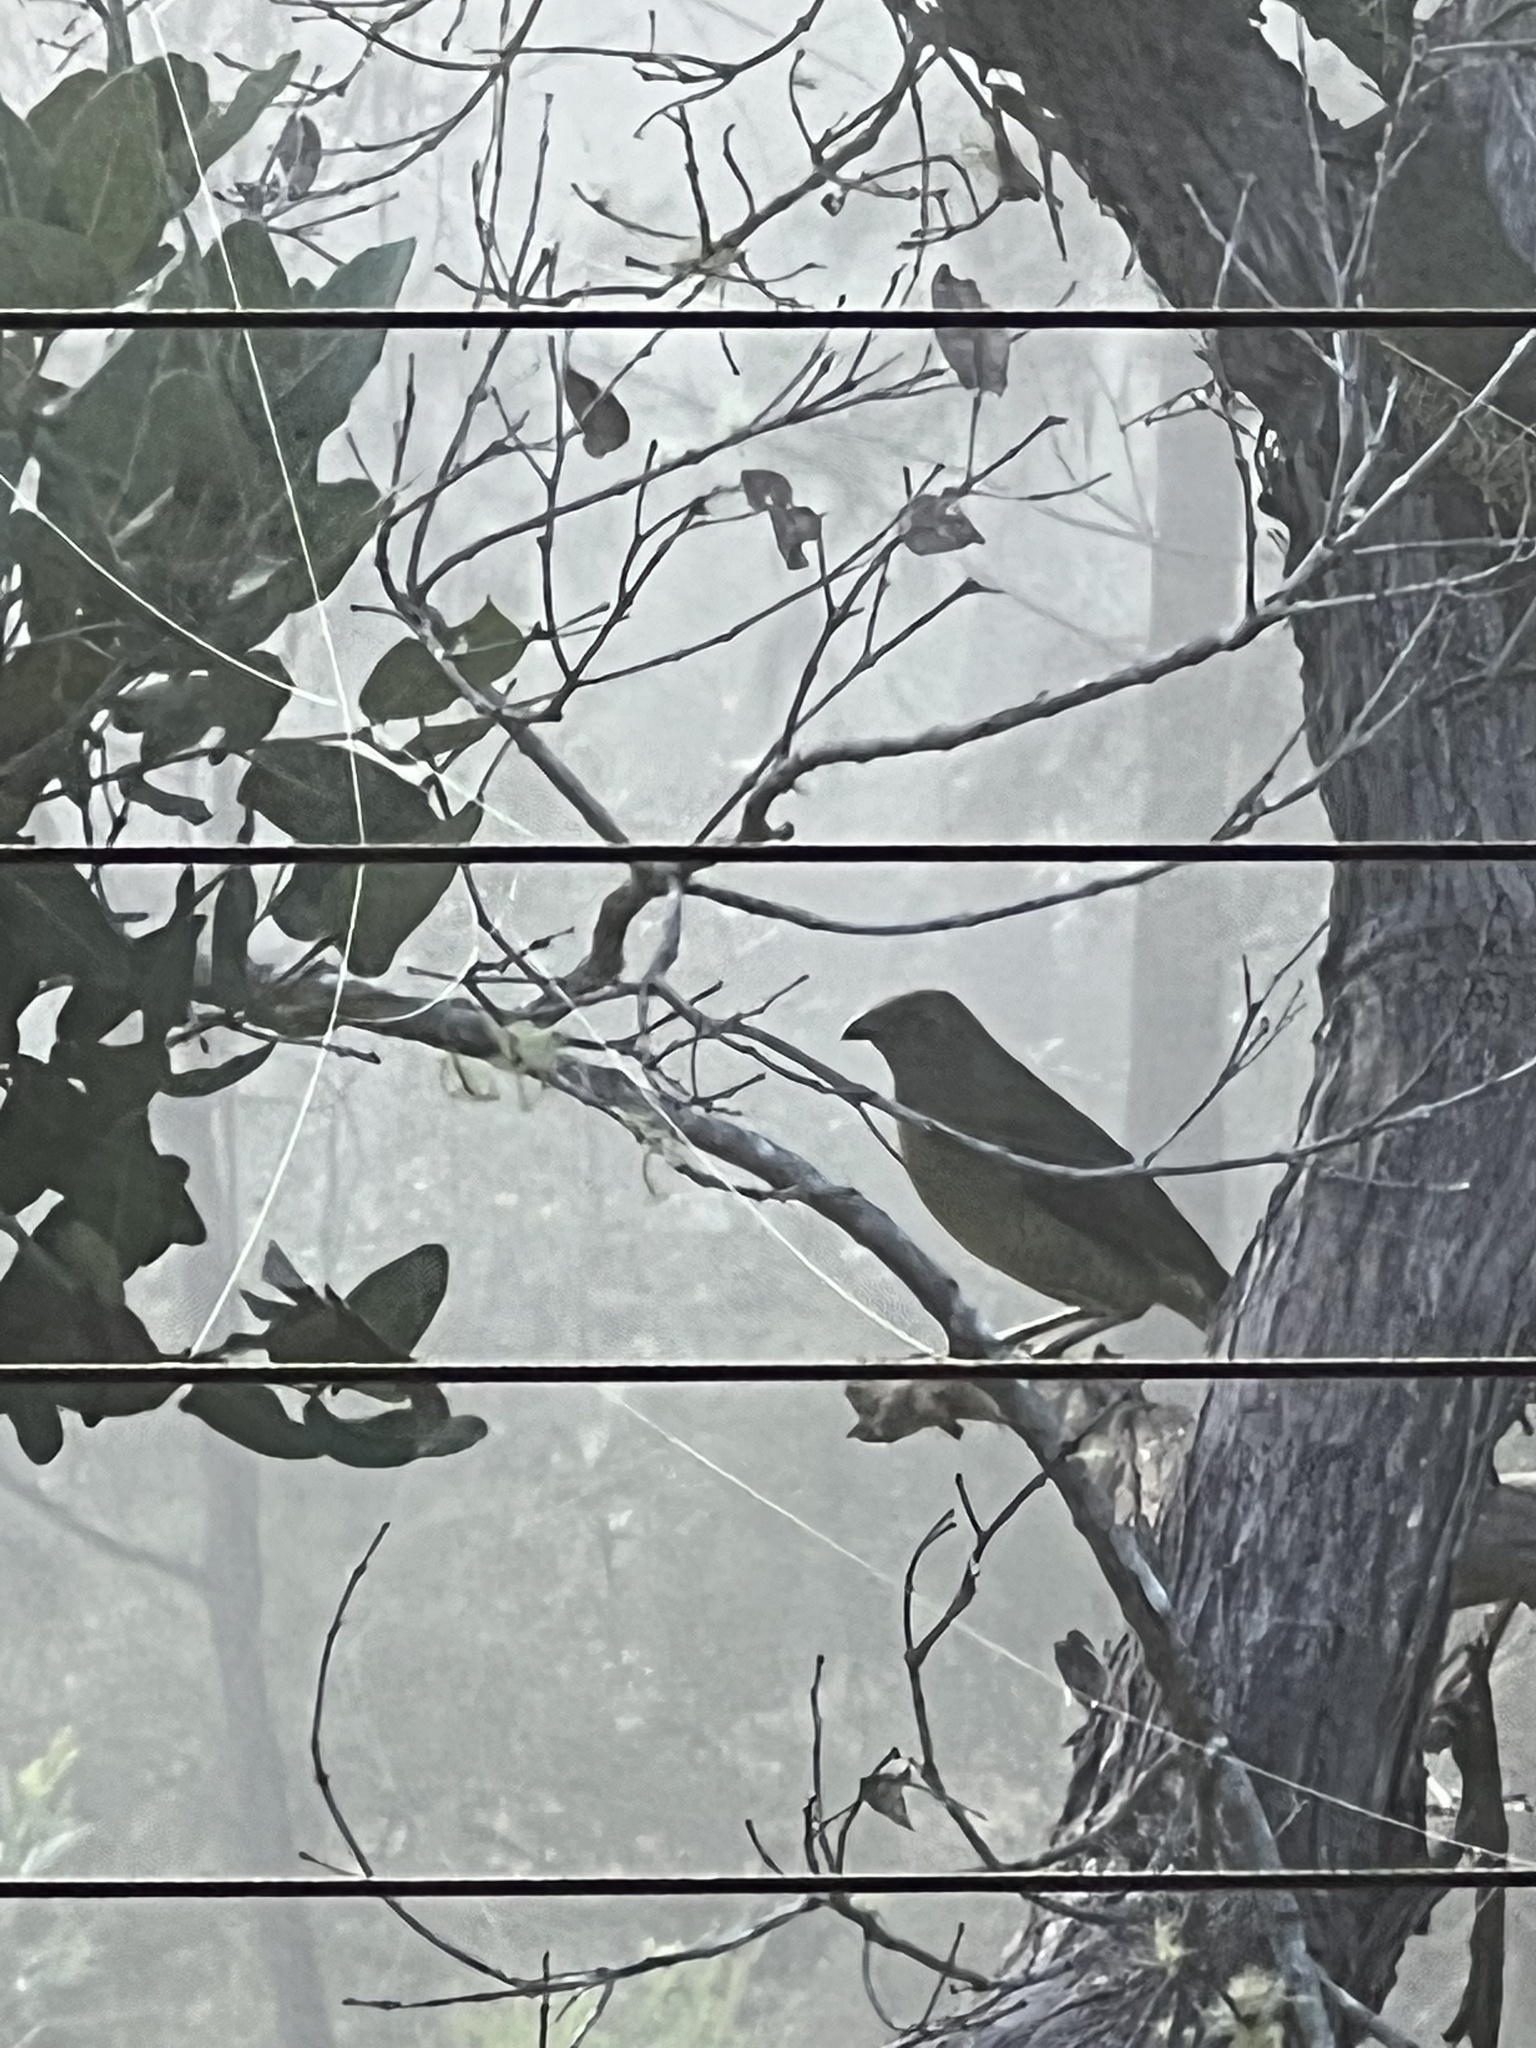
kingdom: Animalia
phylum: Chordata
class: Aves
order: Passeriformes
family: Ptilonorhynchidae
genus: Ptilonorhynchus
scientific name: Ptilonorhynchus violaceus
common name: Satin bowerbird
